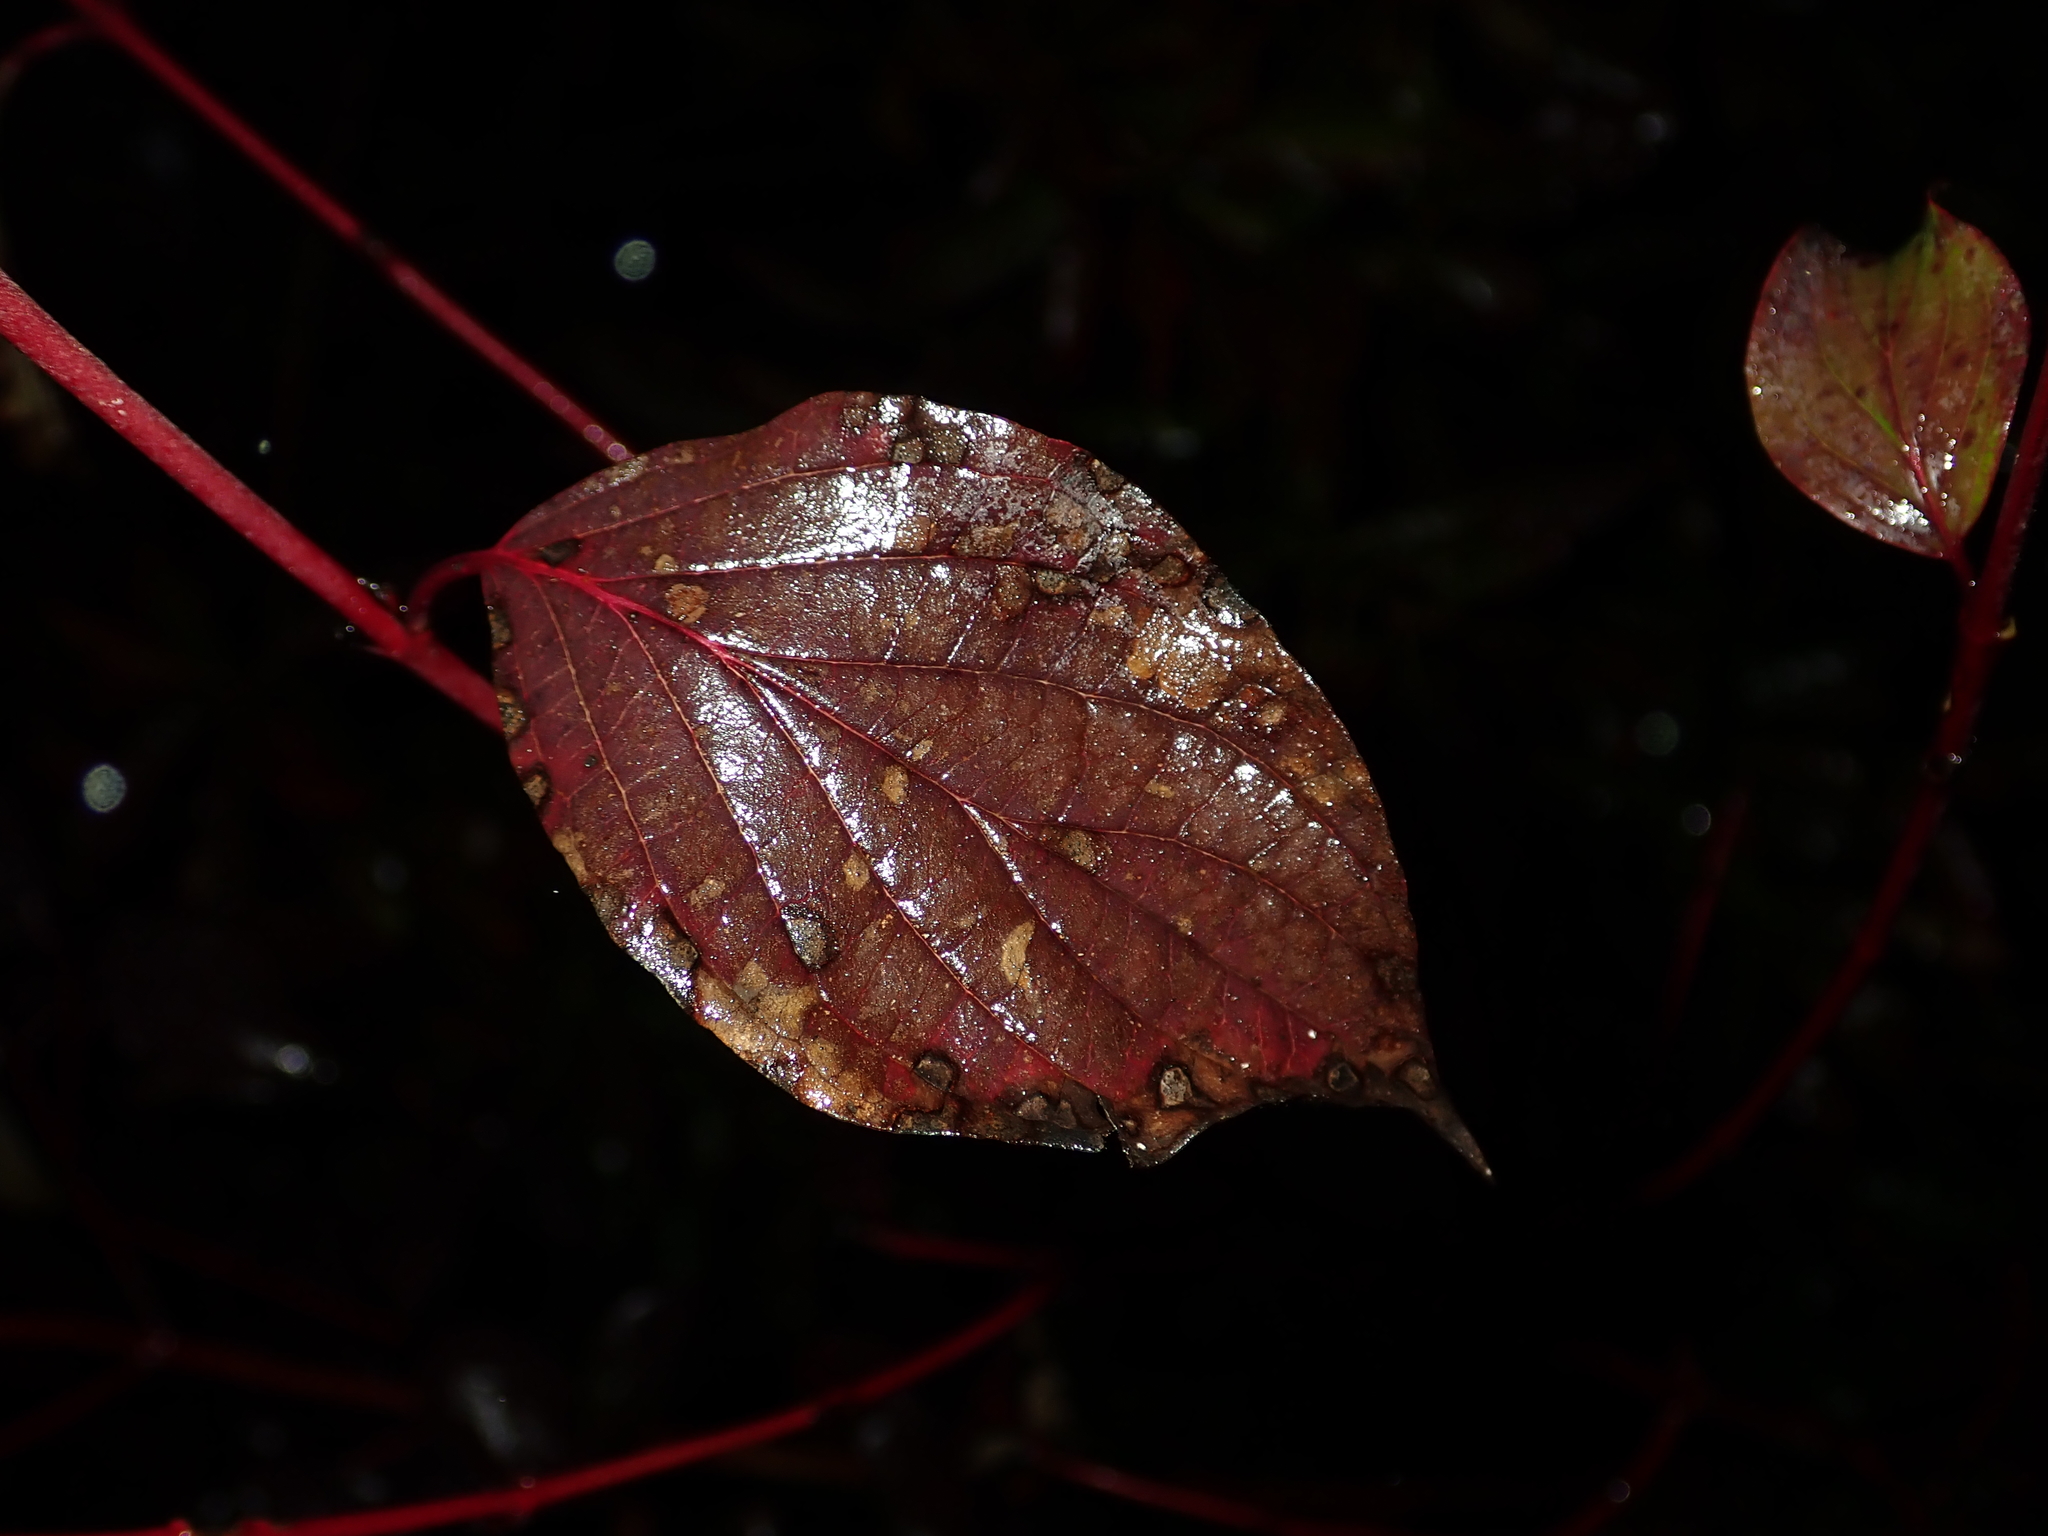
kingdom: Plantae
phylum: Tracheophyta
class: Magnoliopsida
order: Cornales
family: Cornaceae
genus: Cornus
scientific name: Cornus sanguinea
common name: Dogwood
